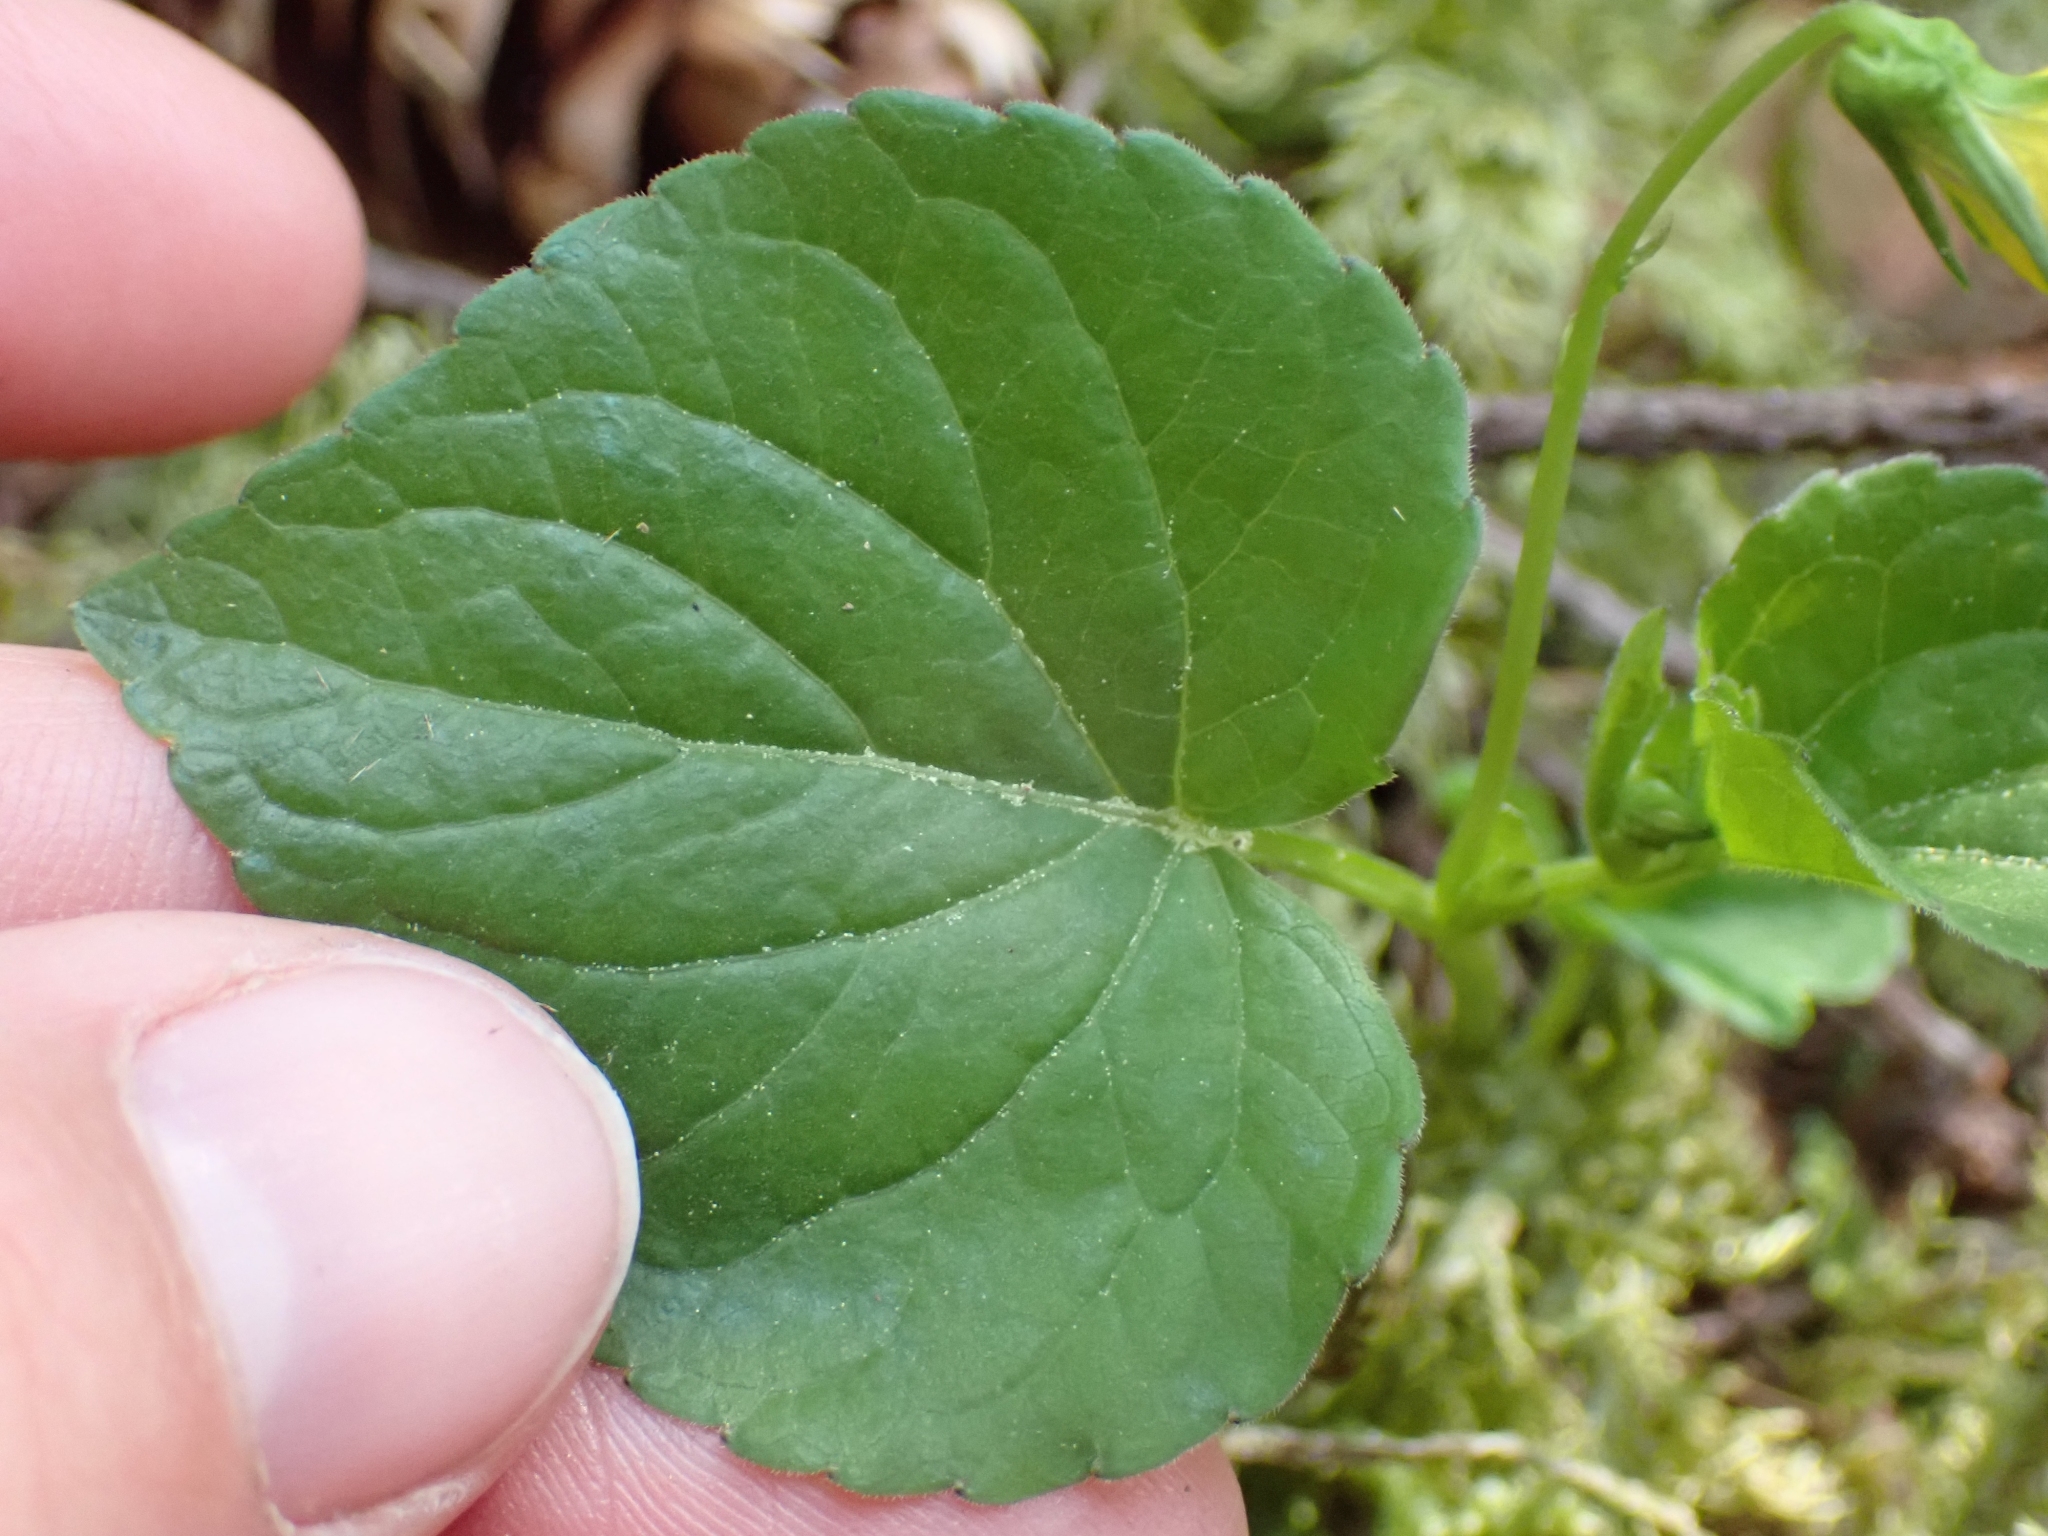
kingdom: Plantae
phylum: Tracheophyta
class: Magnoliopsida
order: Malpighiales
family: Violaceae
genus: Viola
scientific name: Viola glabella
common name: Stream violet
